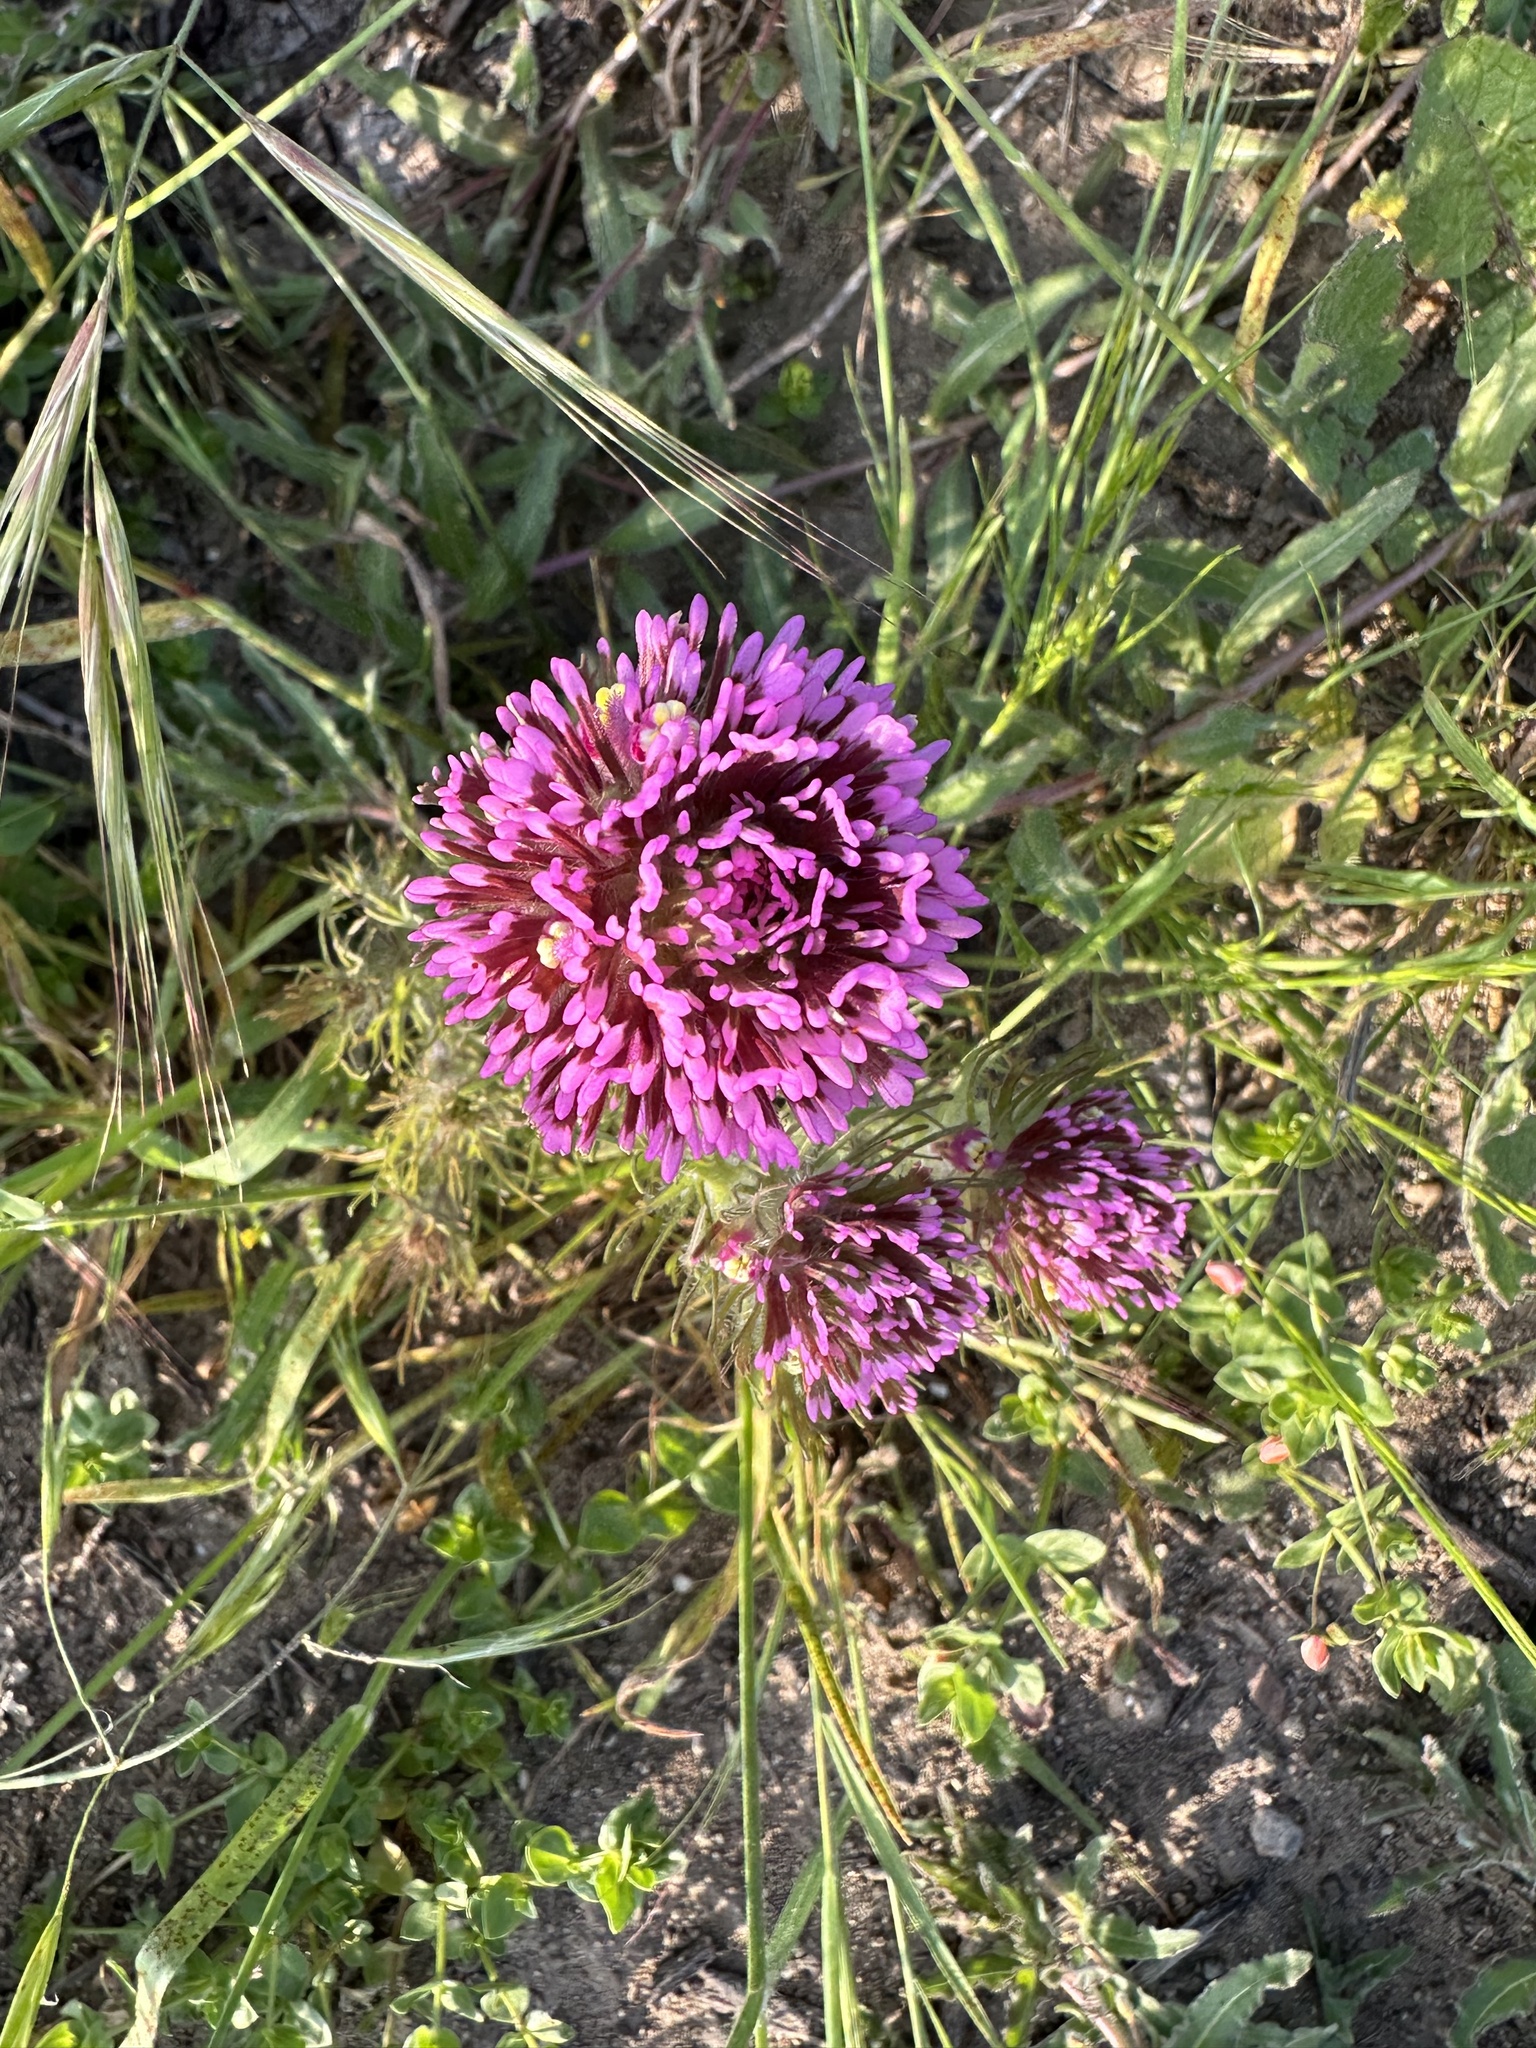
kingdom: Plantae
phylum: Tracheophyta
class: Magnoliopsida
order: Lamiales
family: Orobanchaceae
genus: Castilleja
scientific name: Castilleja exserta
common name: Purple owl-clover
